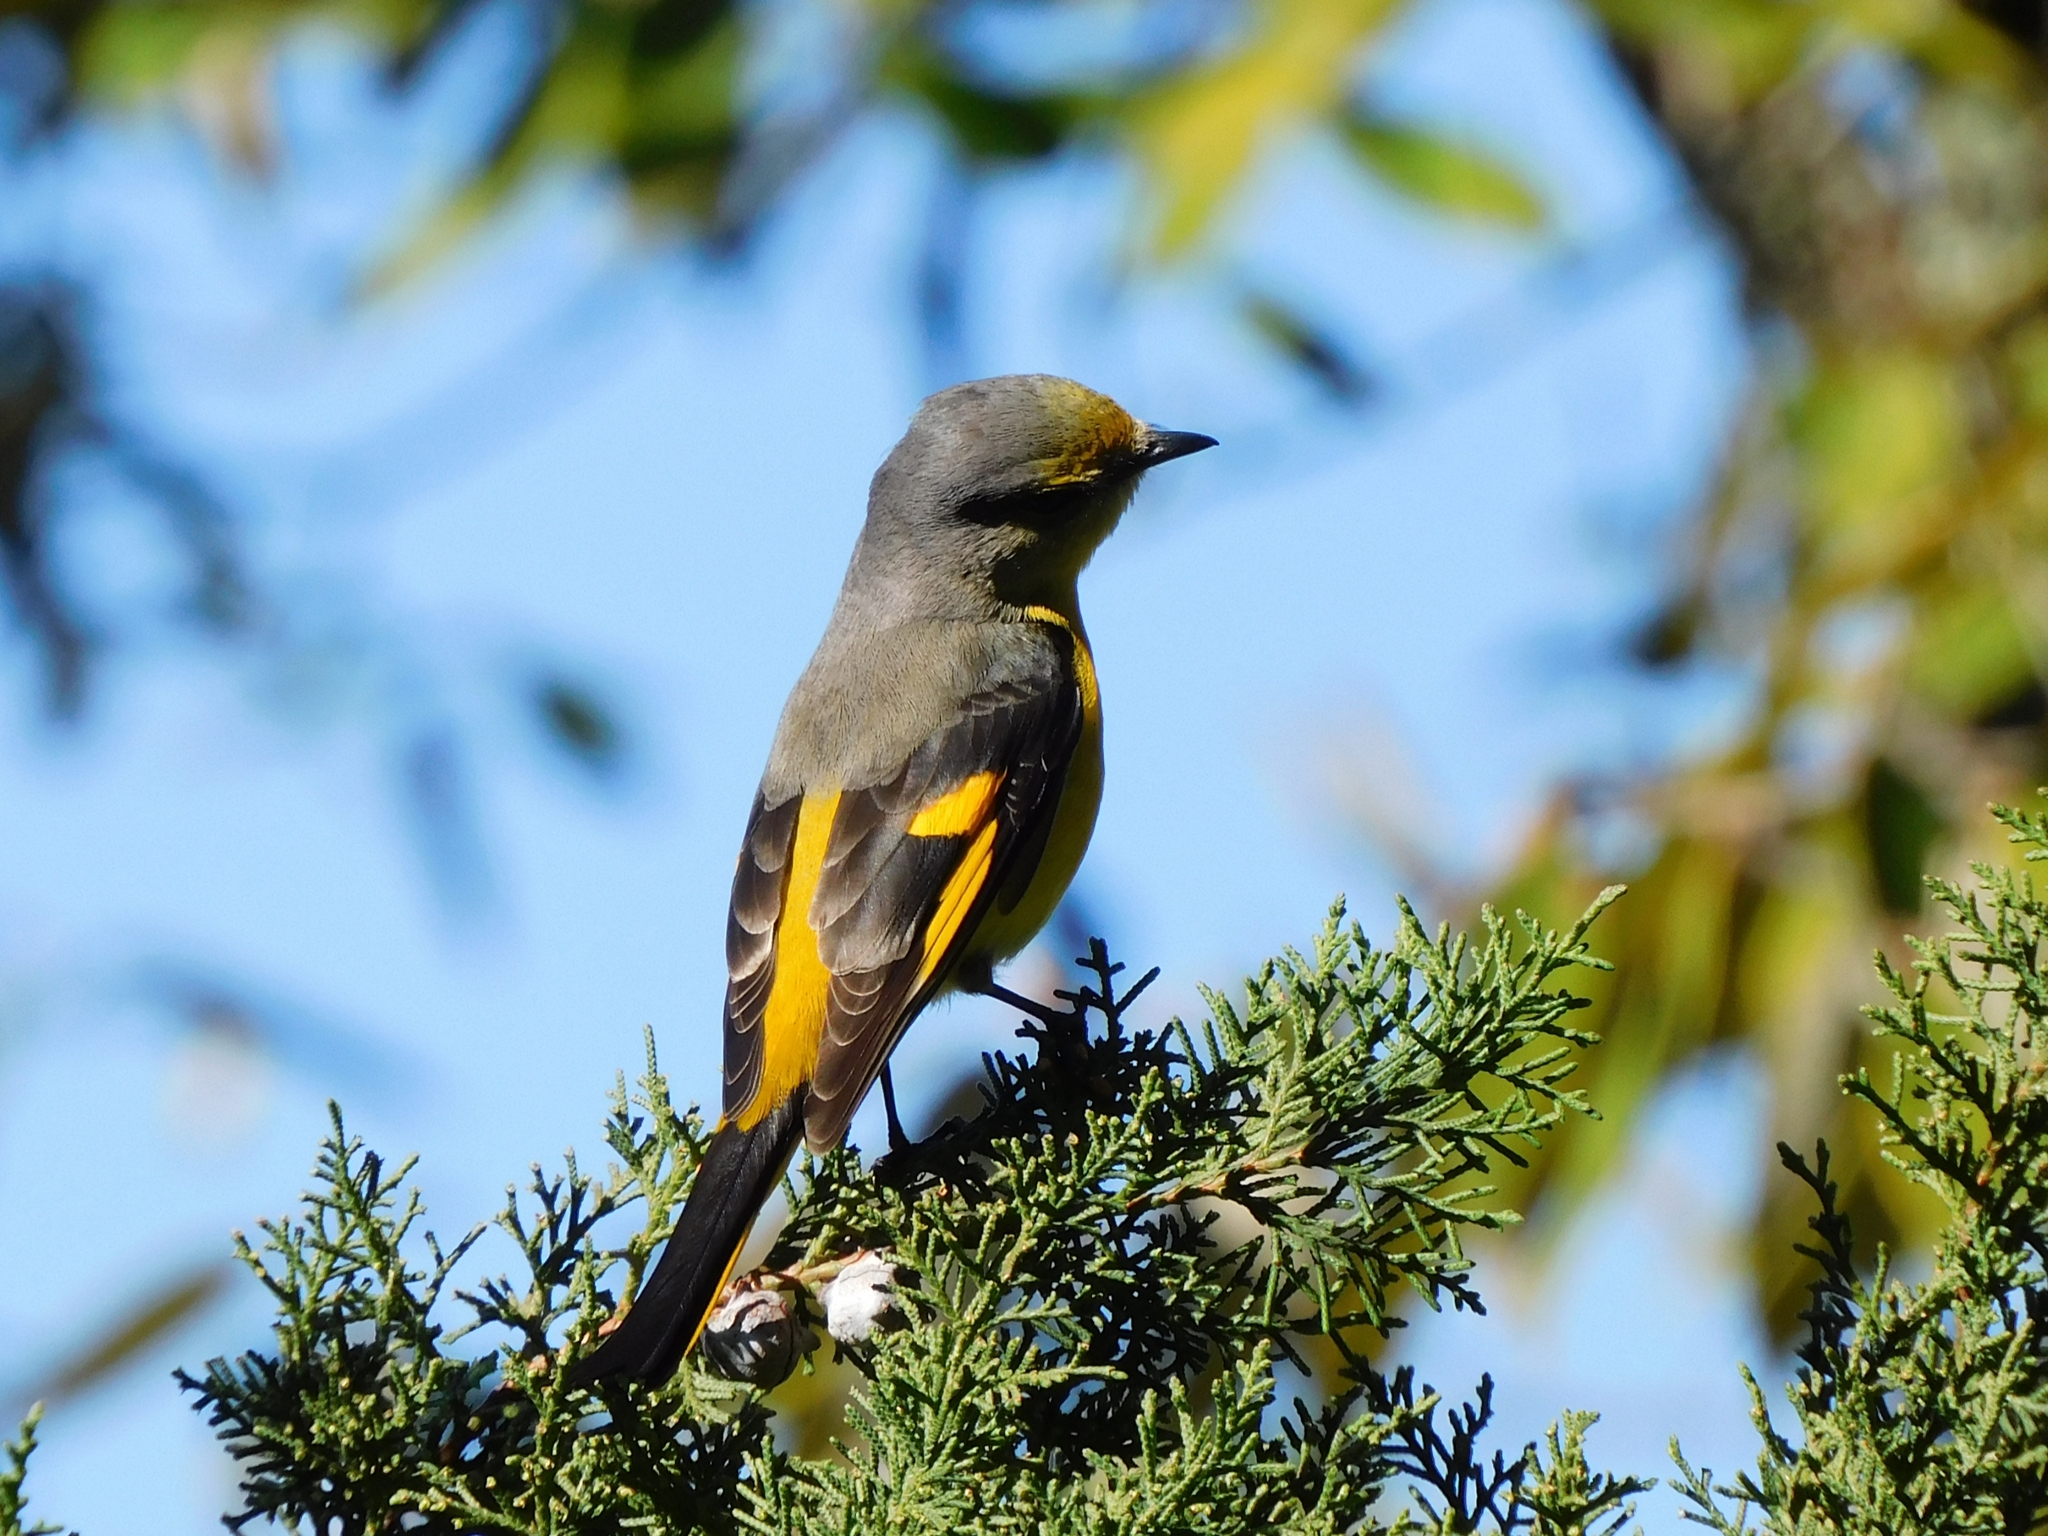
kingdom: Animalia
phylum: Chordata
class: Aves
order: Passeriformes
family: Campephagidae
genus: Pericrocotus
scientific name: Pericrocotus brevirostris
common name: Short-billed minivet
